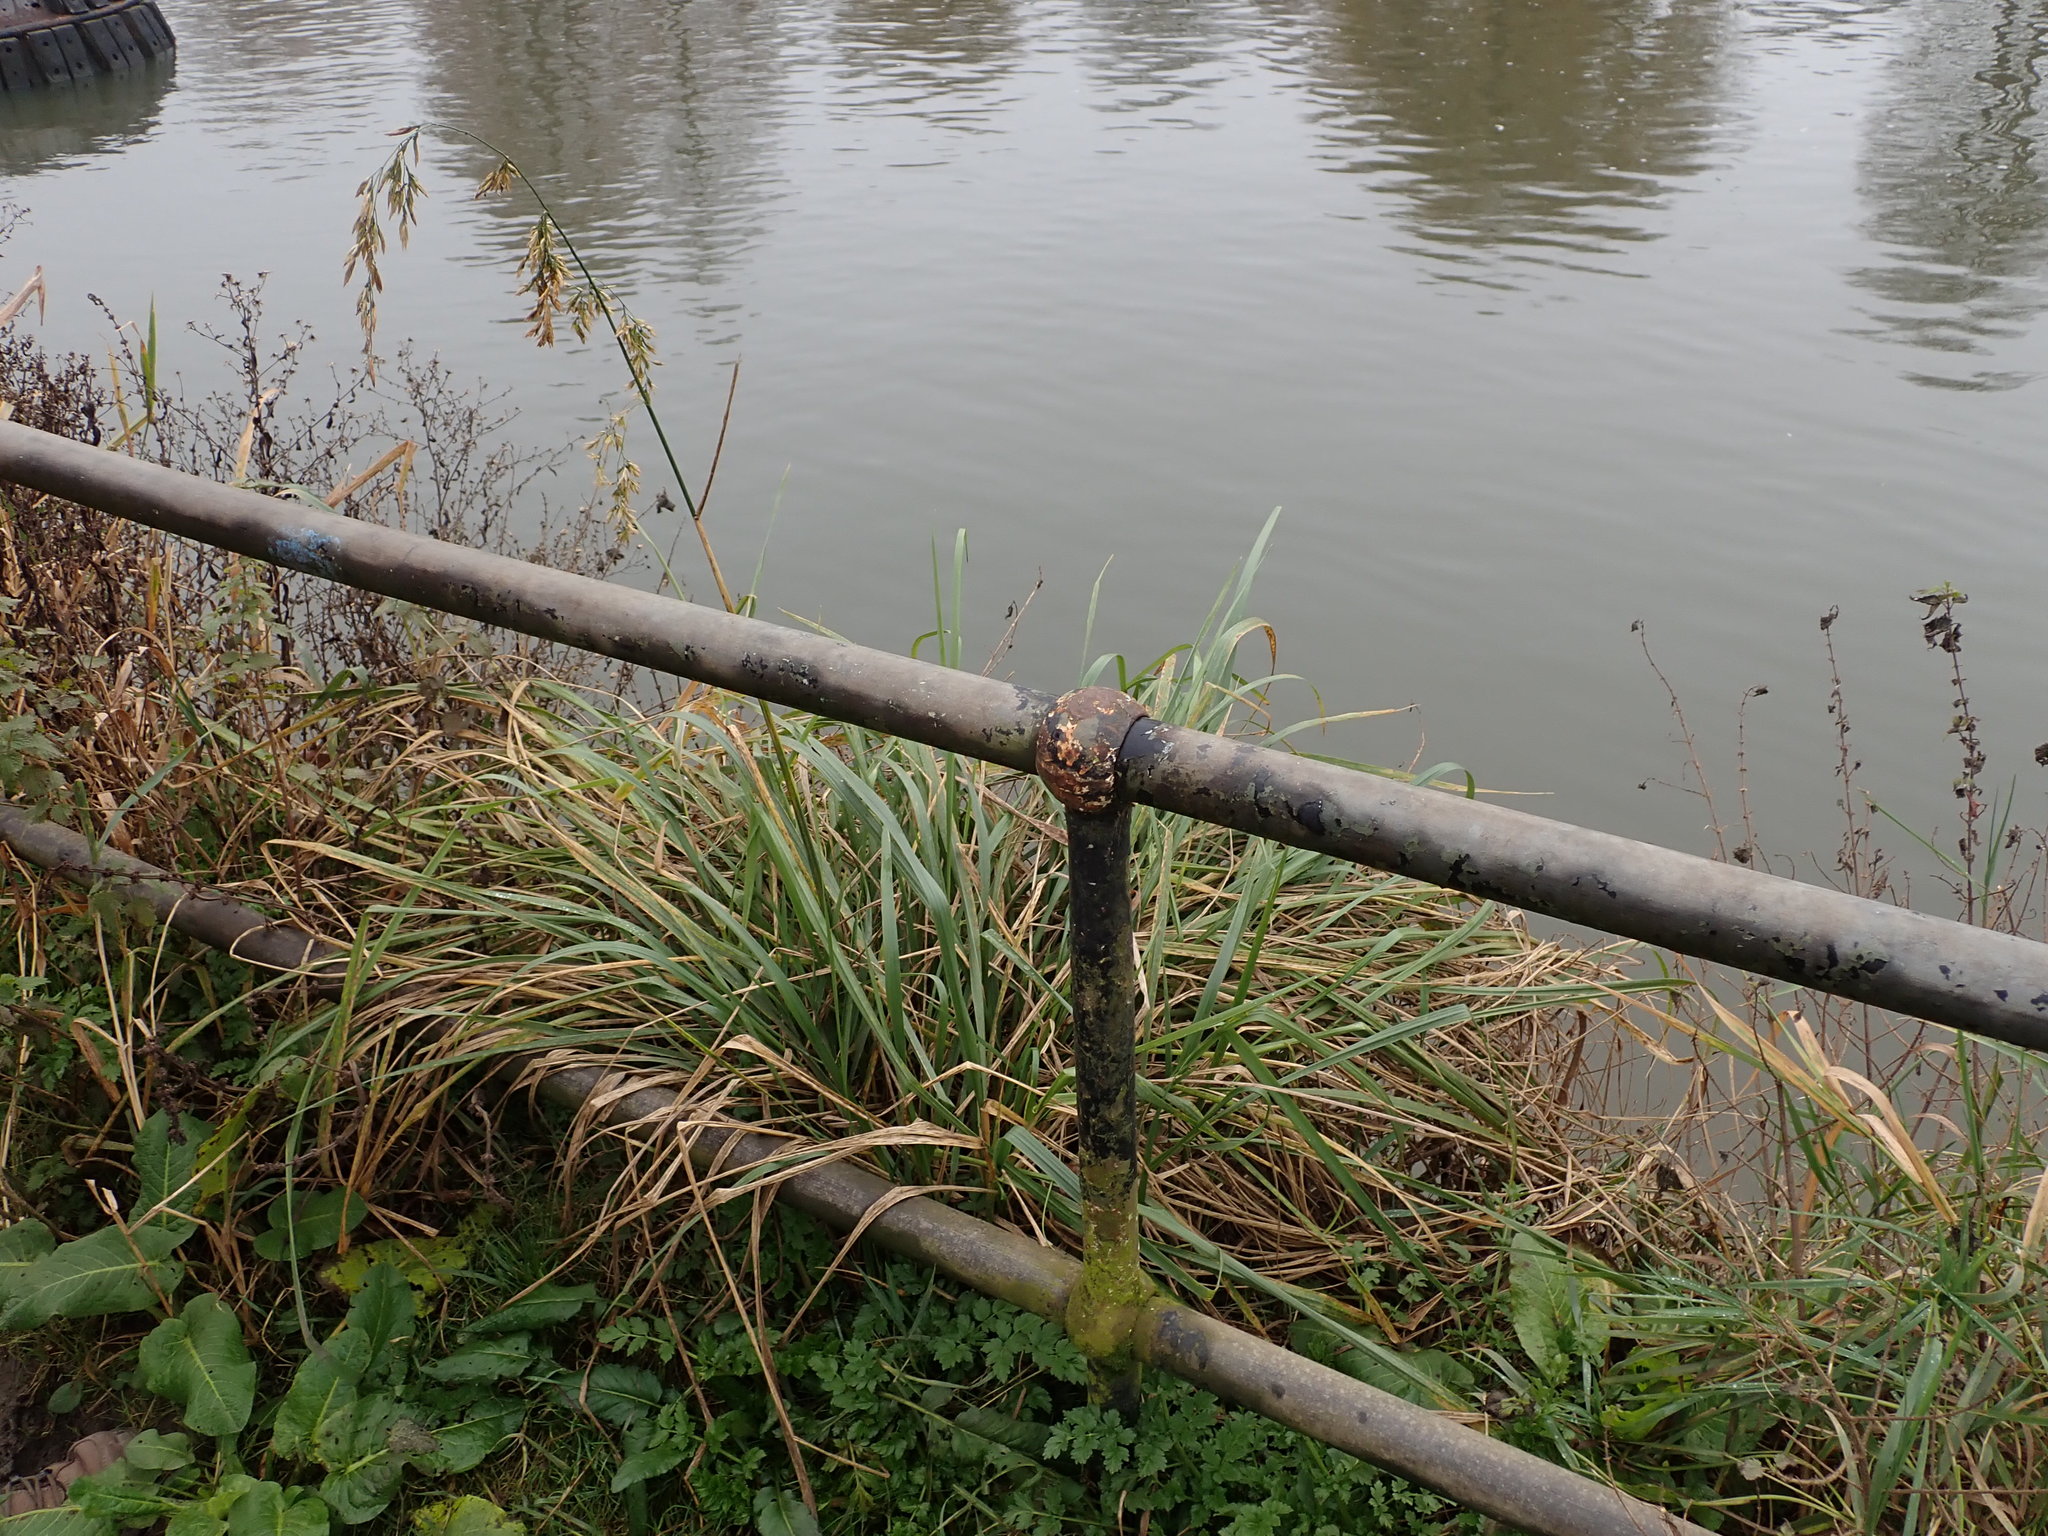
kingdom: Plantae
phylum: Tracheophyta
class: Liliopsida
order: Poales
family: Poaceae
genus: Lolium
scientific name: Lolium arundinaceum
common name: Reed fescue
